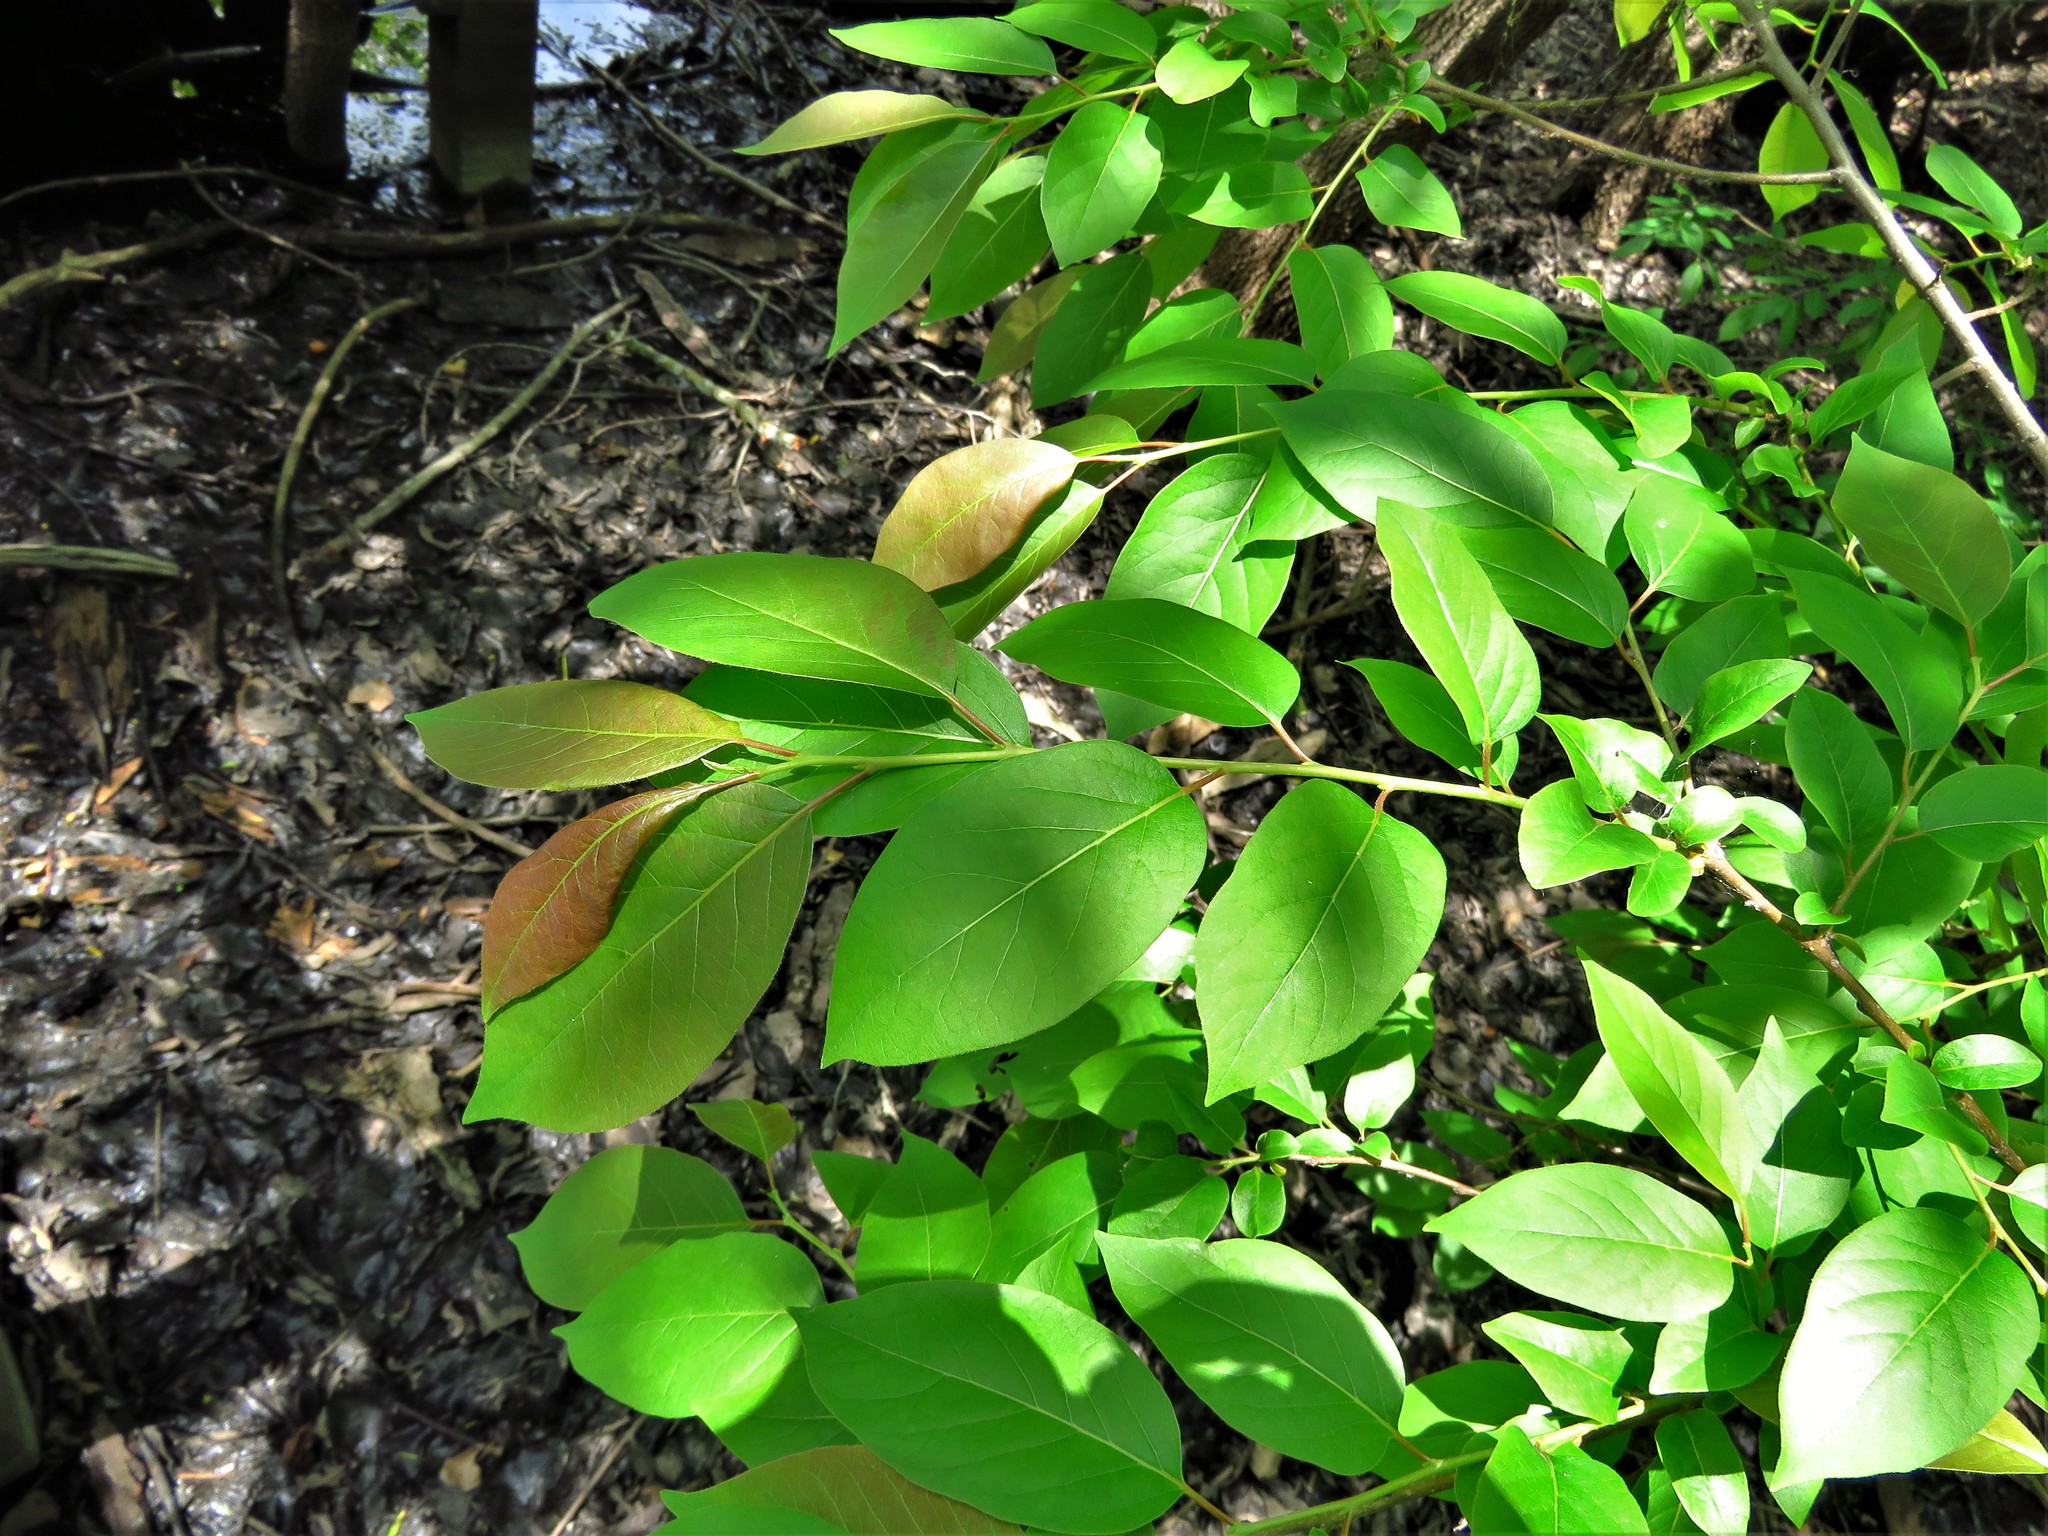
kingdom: Plantae
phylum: Tracheophyta
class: Magnoliopsida
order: Ericales
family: Ebenaceae
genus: Diospyros
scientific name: Diospyros virginiana
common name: Persimmon
